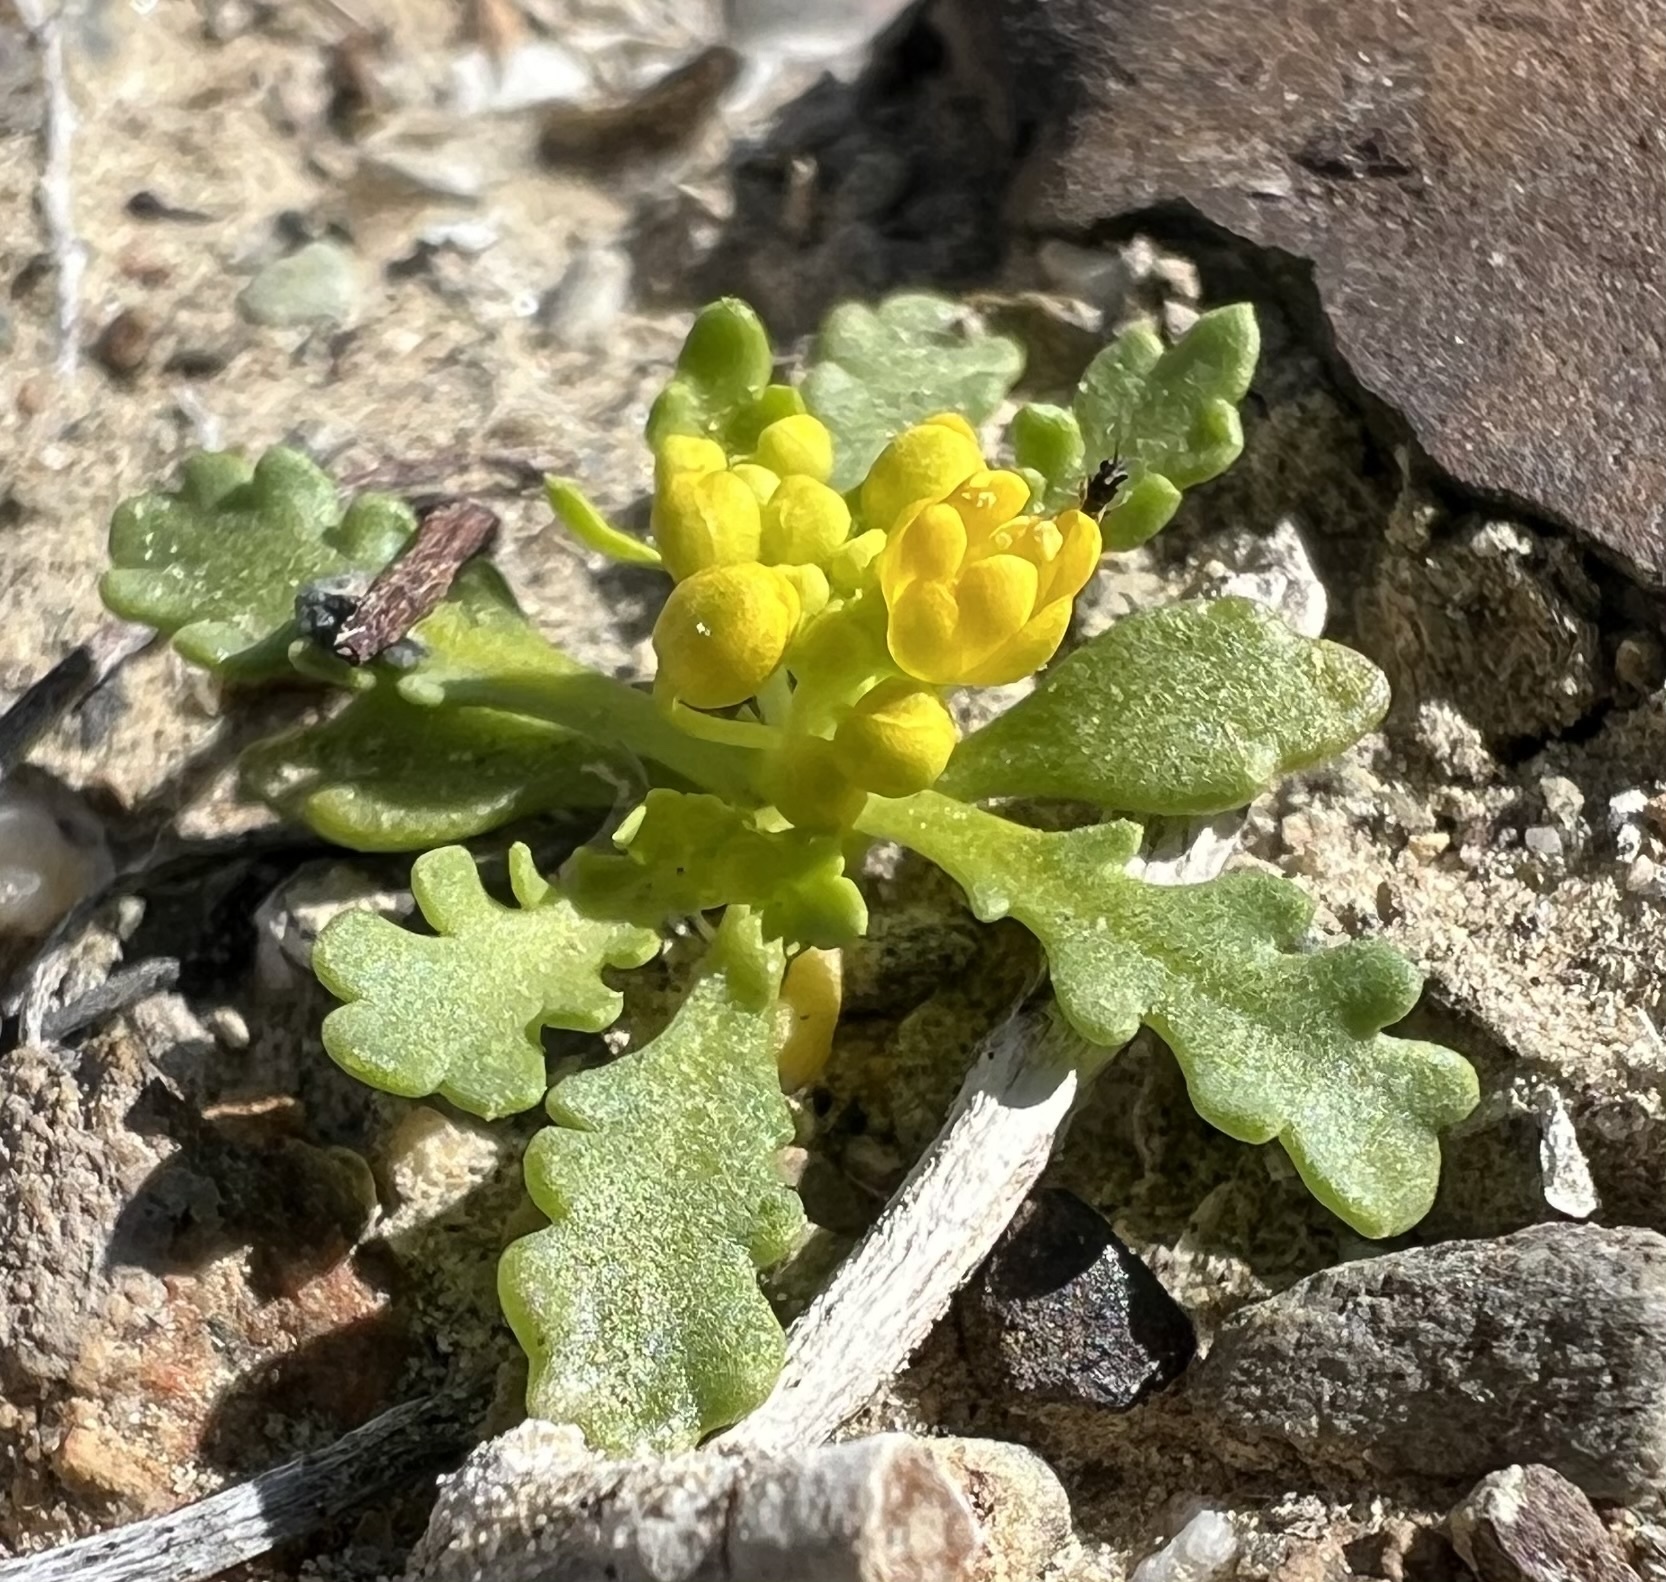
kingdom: Plantae
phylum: Tracheophyta
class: Magnoliopsida
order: Brassicales
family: Brassicaceae
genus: Lepidium
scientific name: Lepidium flavum
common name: Yellow pepperwort
